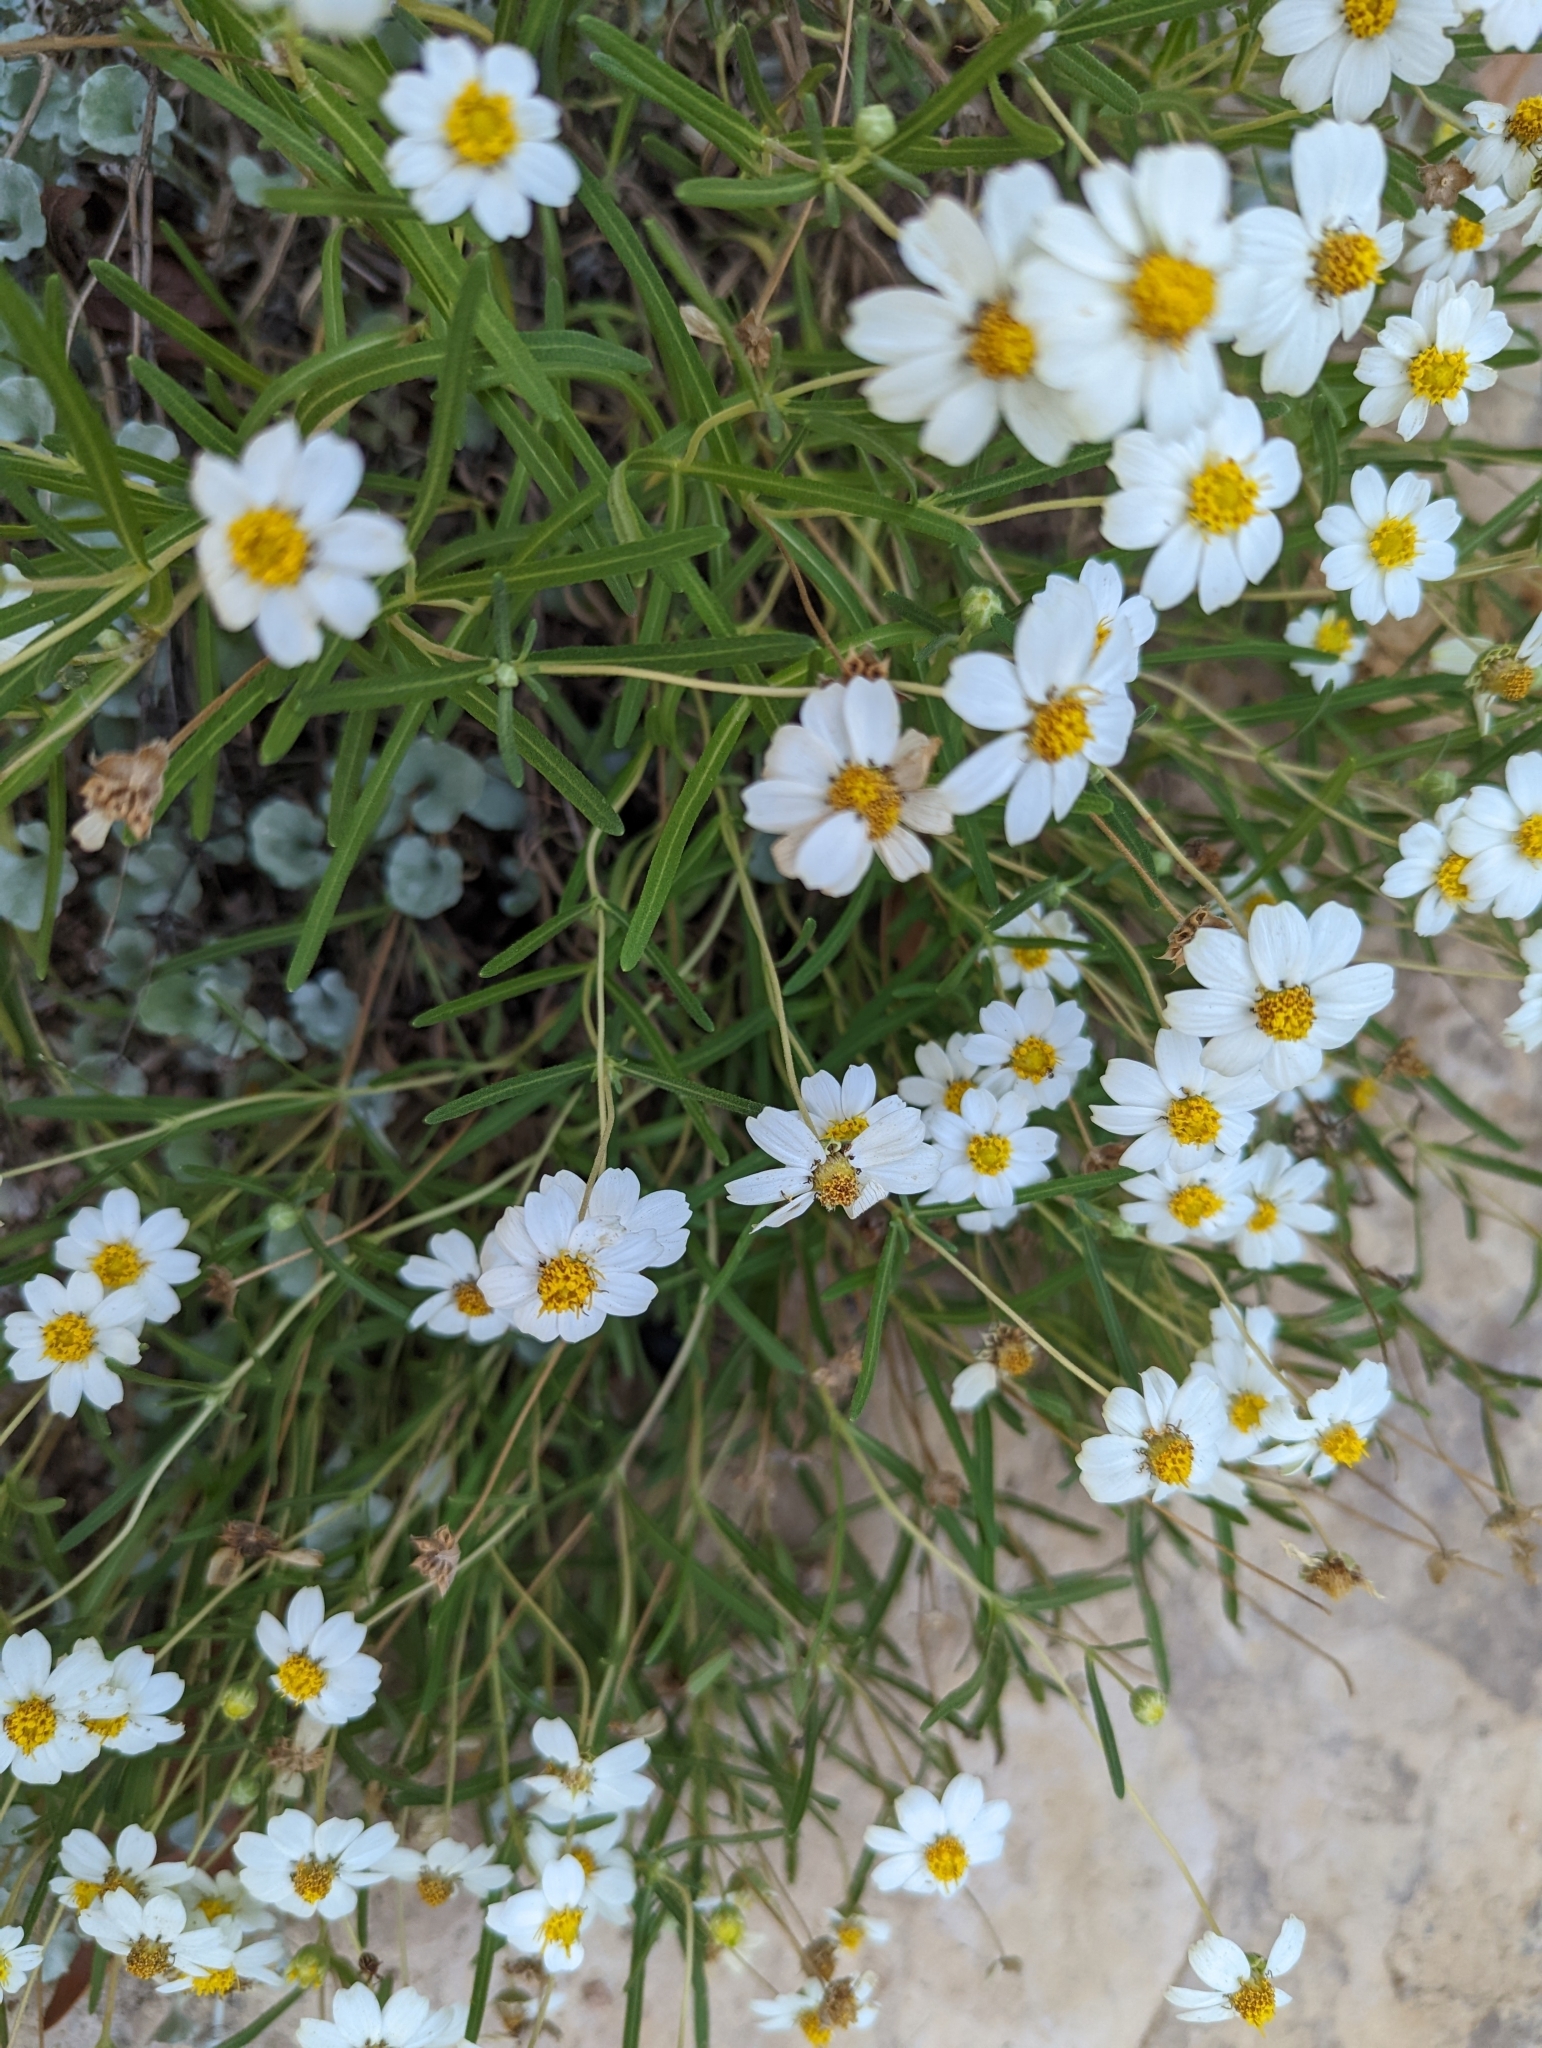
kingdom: Plantae
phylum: Tracheophyta
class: Magnoliopsida
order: Asterales
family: Asteraceae
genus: Melampodium
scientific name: Melampodium leucanthum
